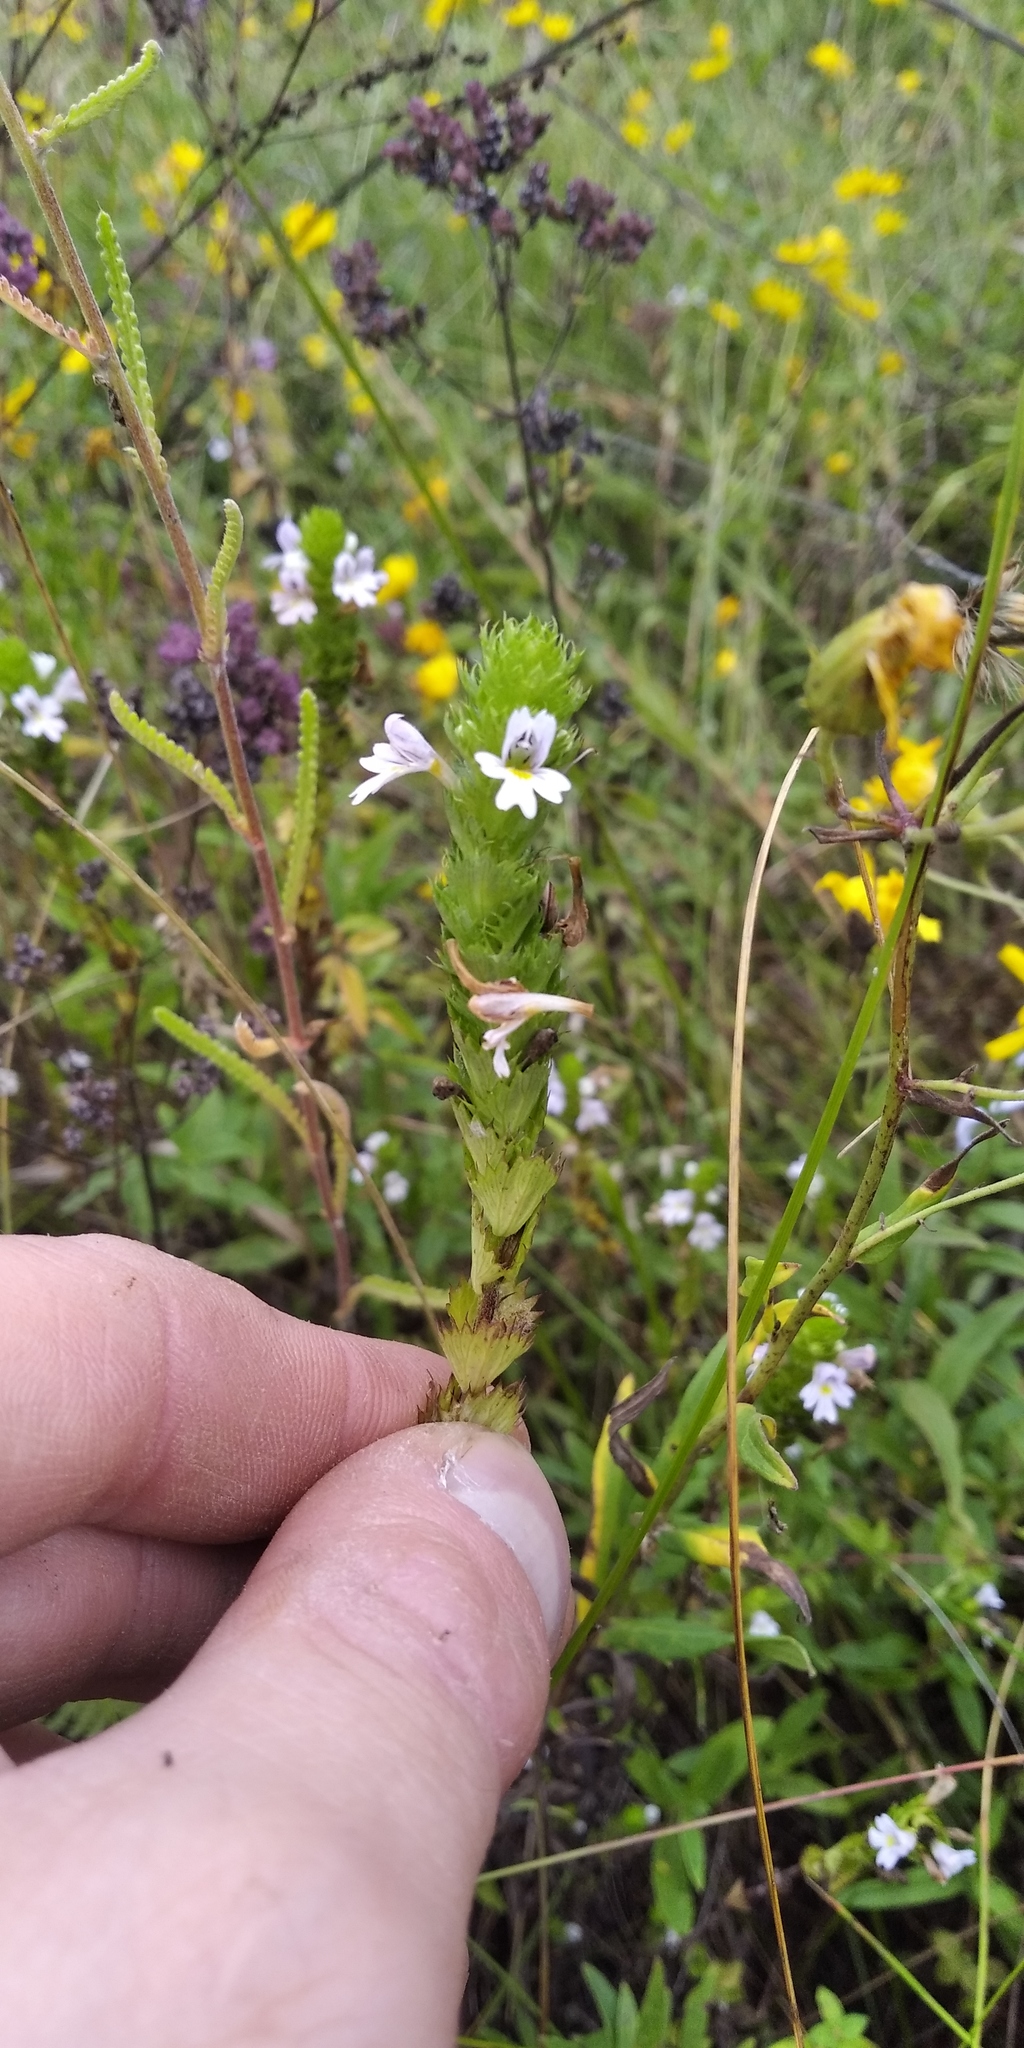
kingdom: Plantae
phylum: Tracheophyta
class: Magnoliopsida
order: Lamiales
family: Orobanchaceae
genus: Euphrasia
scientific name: Euphrasia pectinata
